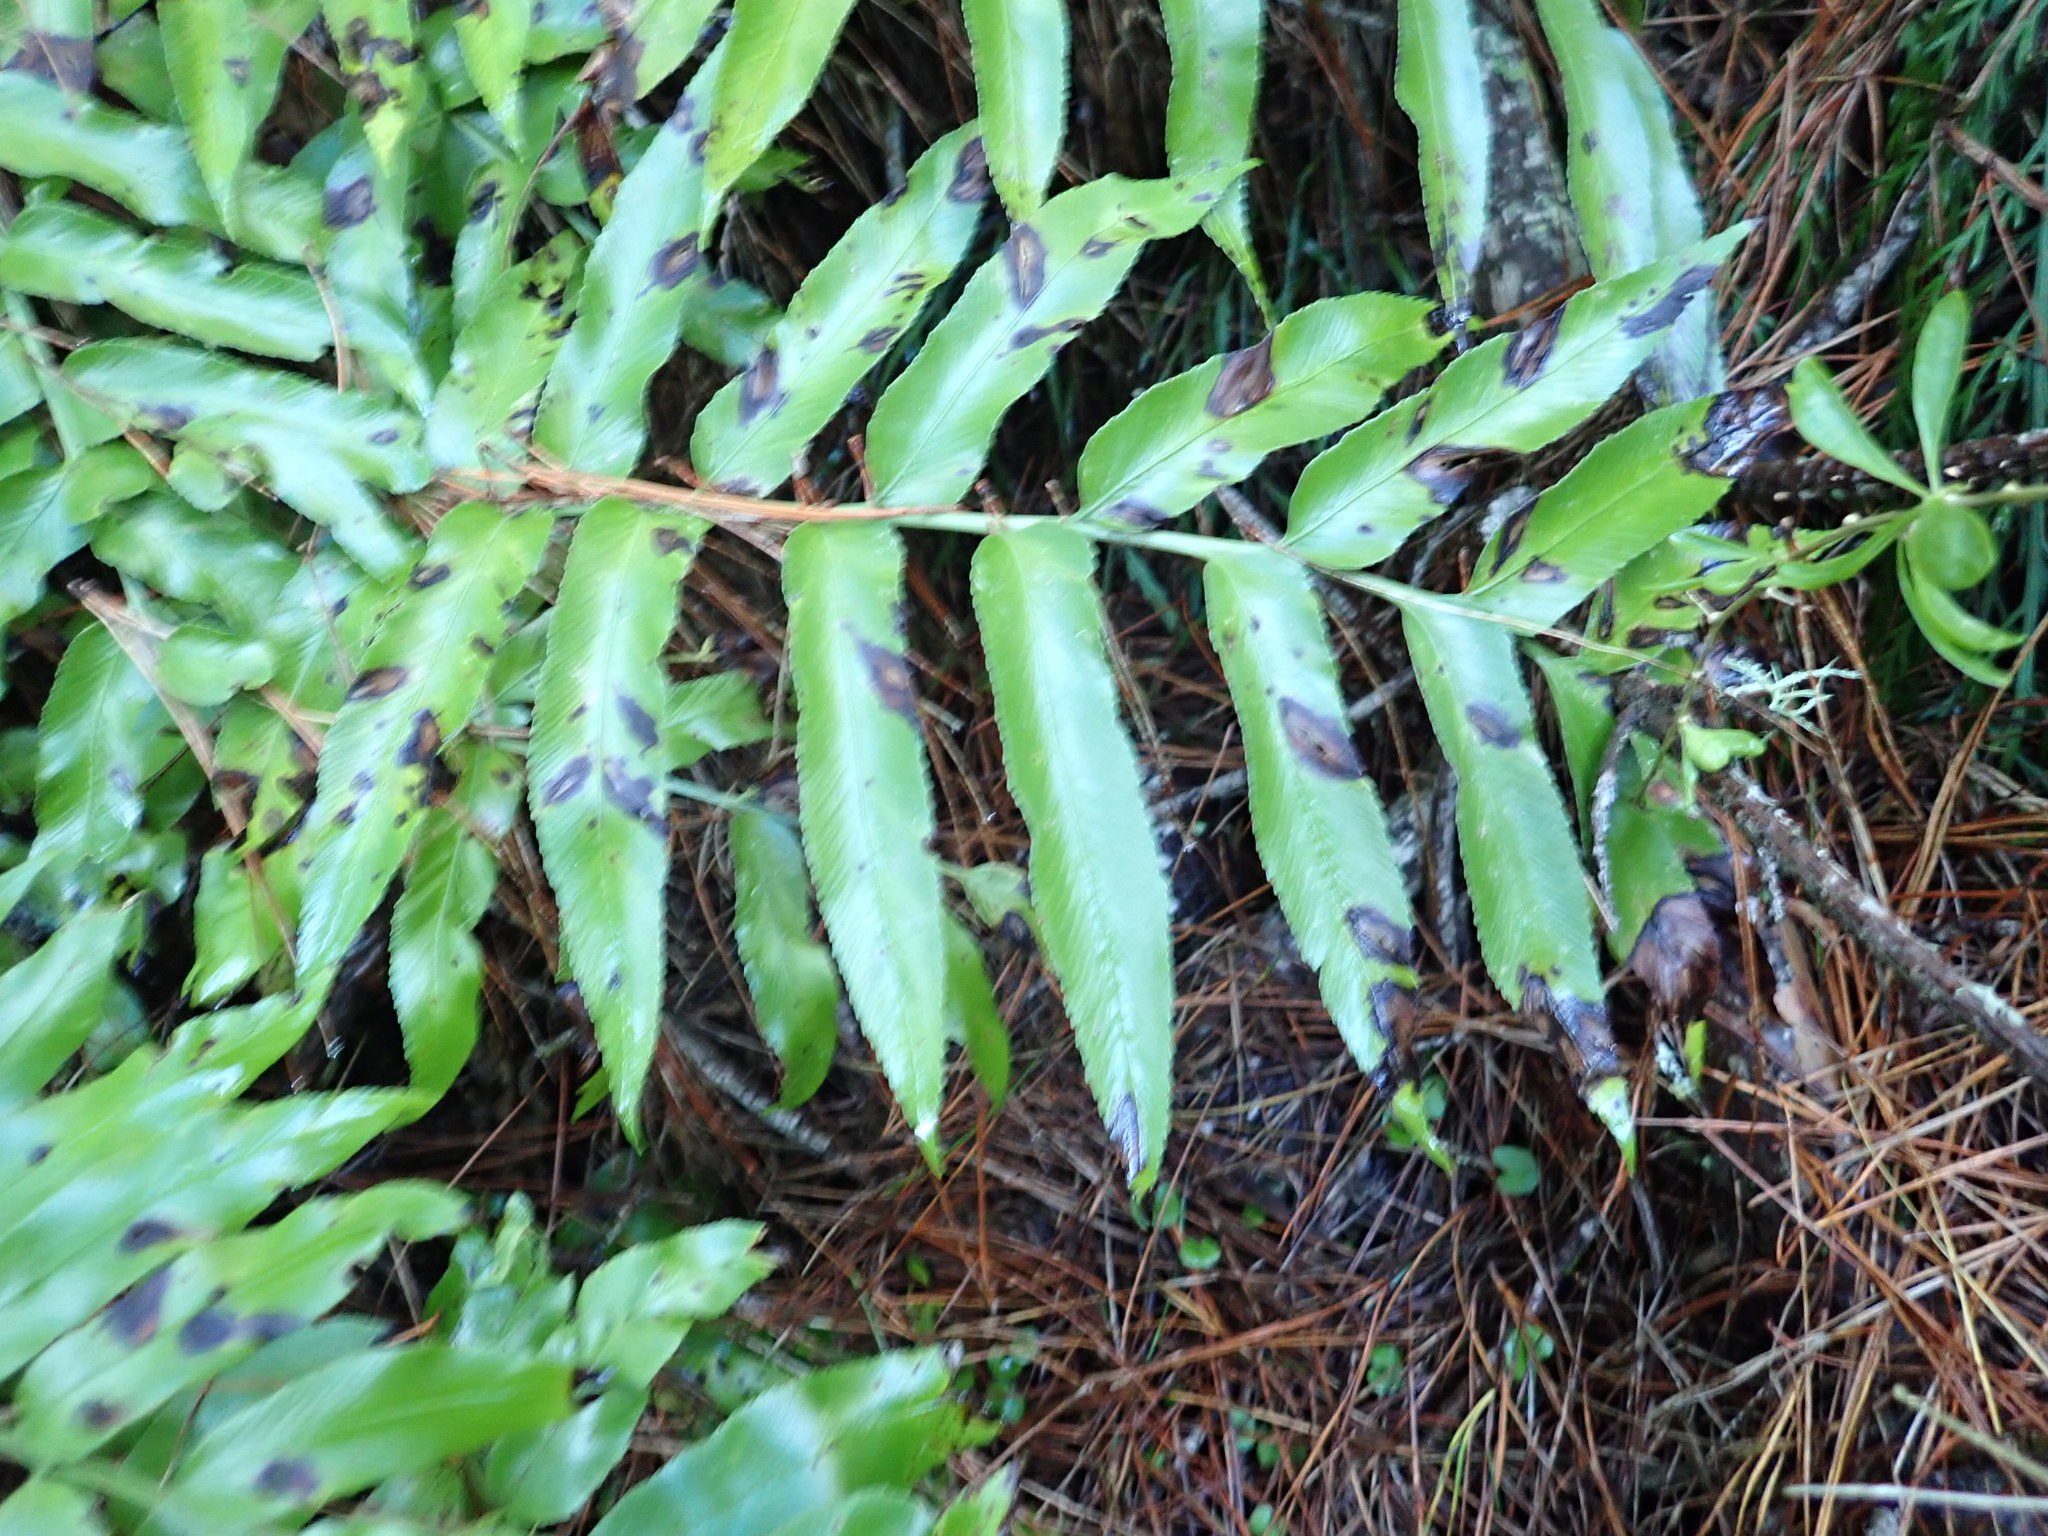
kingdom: Plantae
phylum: Tracheophyta
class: Polypodiopsida
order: Polypodiales
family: Aspleniaceae
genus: Asplenium
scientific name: Asplenium oblongifolium
